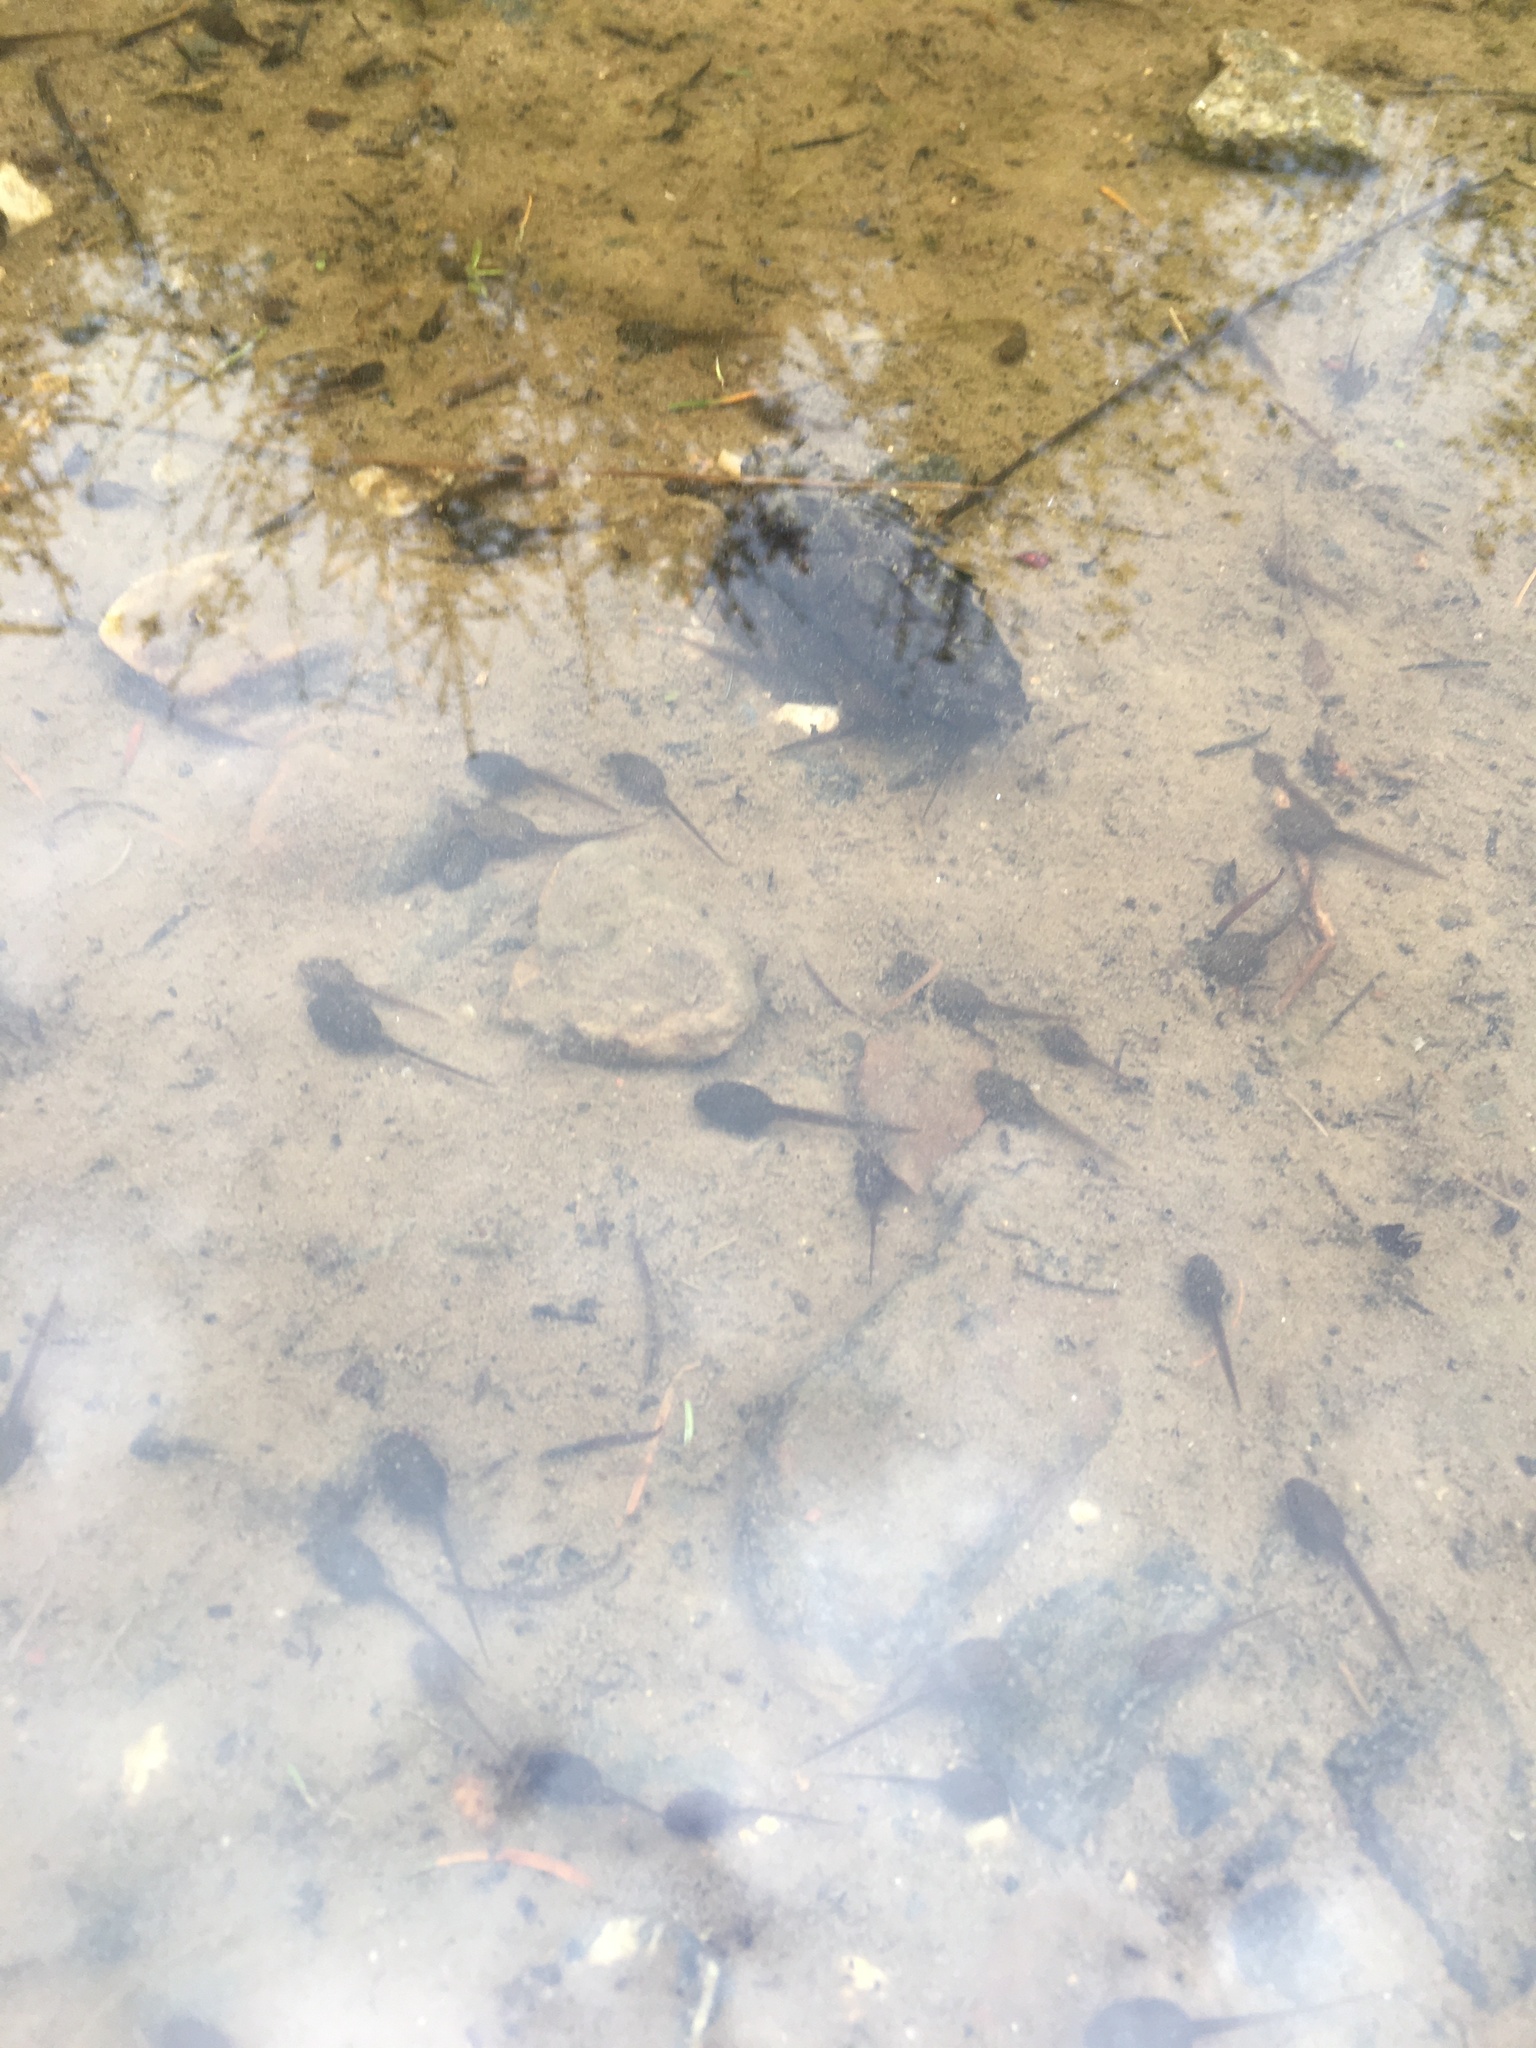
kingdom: Animalia
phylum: Chordata
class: Amphibia
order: Anura
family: Ranidae
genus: Rana
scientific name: Rana temporaria
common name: Common frog
